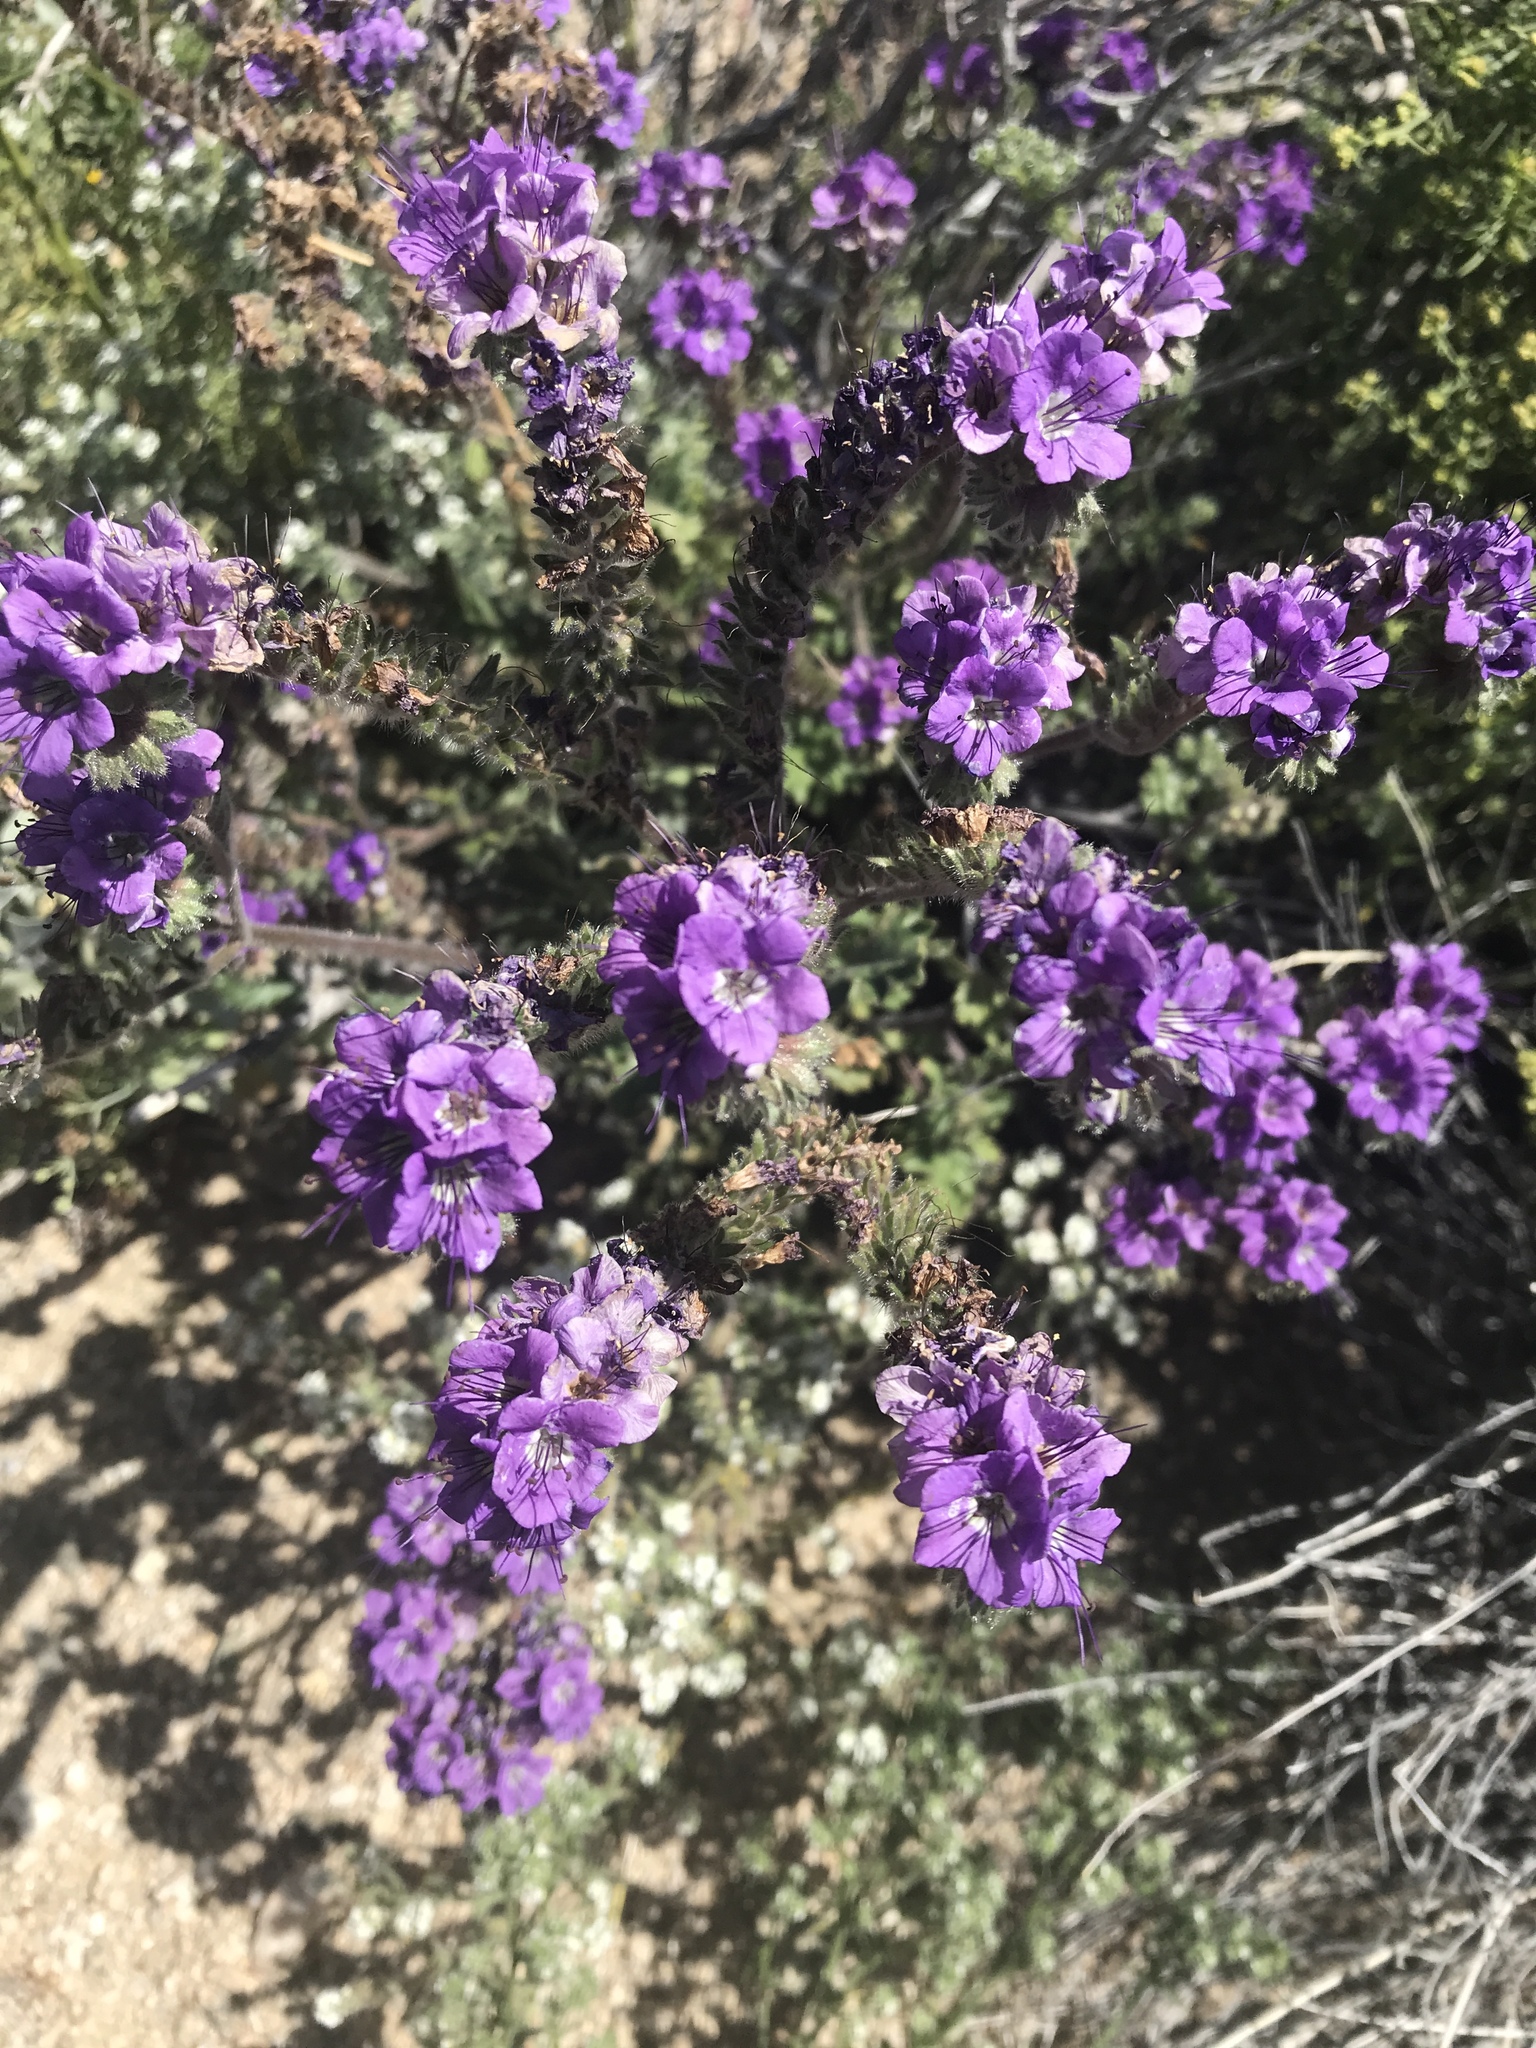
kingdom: Plantae
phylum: Tracheophyta
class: Magnoliopsida
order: Boraginales
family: Hydrophyllaceae
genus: Phacelia
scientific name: Phacelia crenulata
